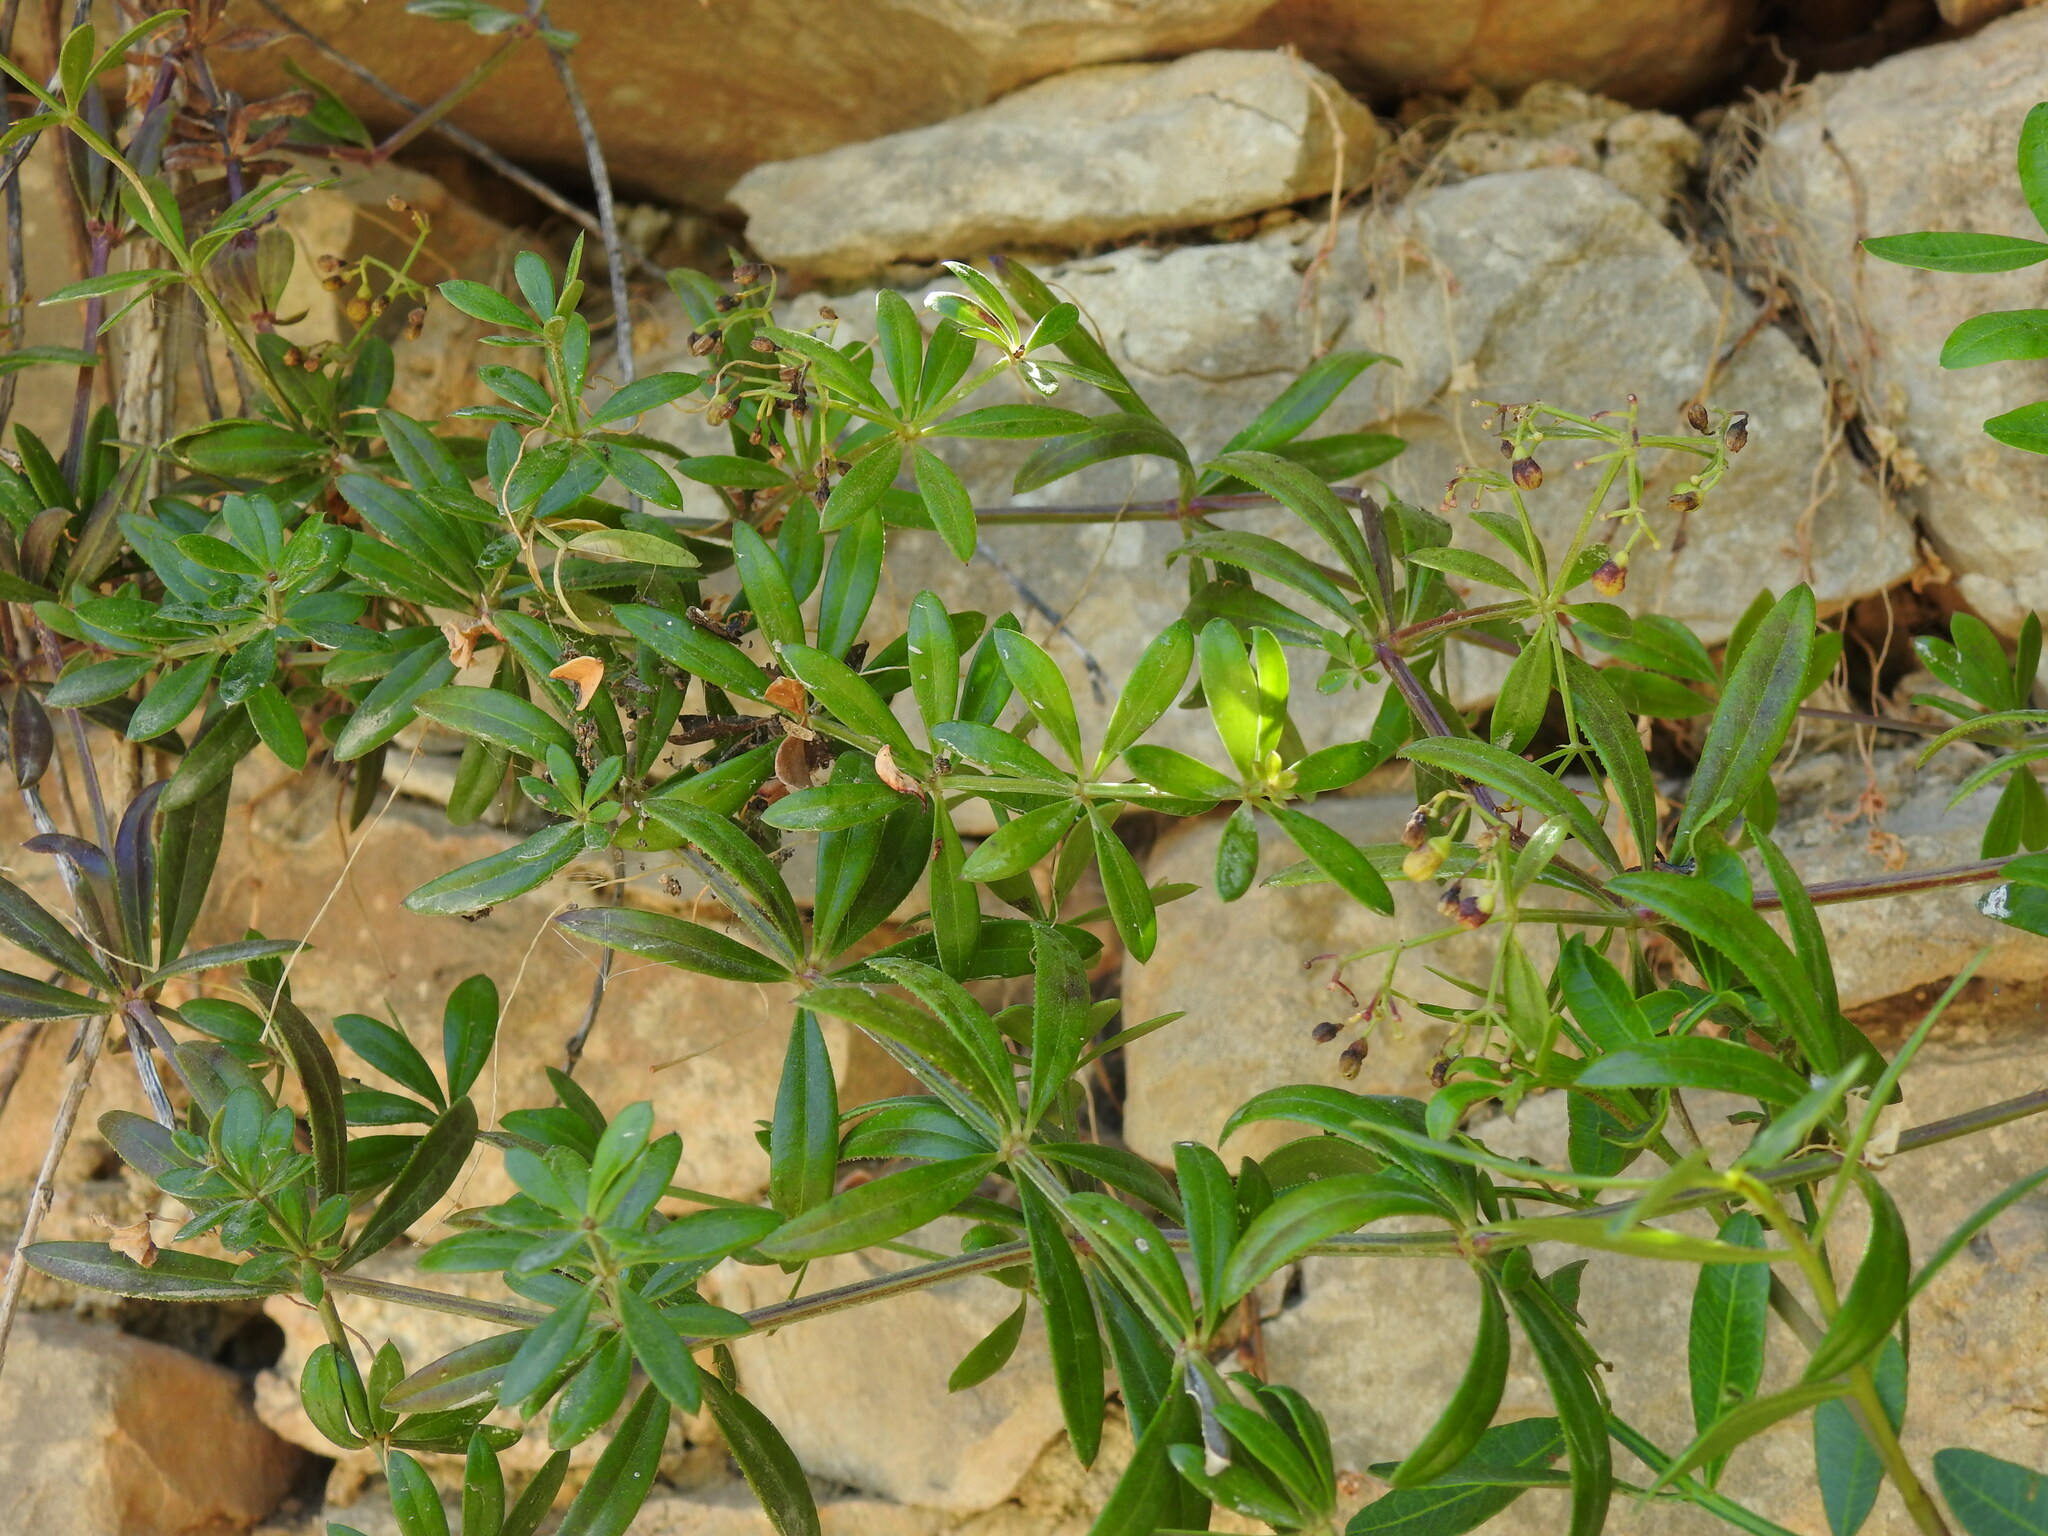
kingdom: Plantae
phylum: Tracheophyta
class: Magnoliopsida
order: Gentianales
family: Rubiaceae
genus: Rubia
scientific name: Rubia peregrina
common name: Wild madder
